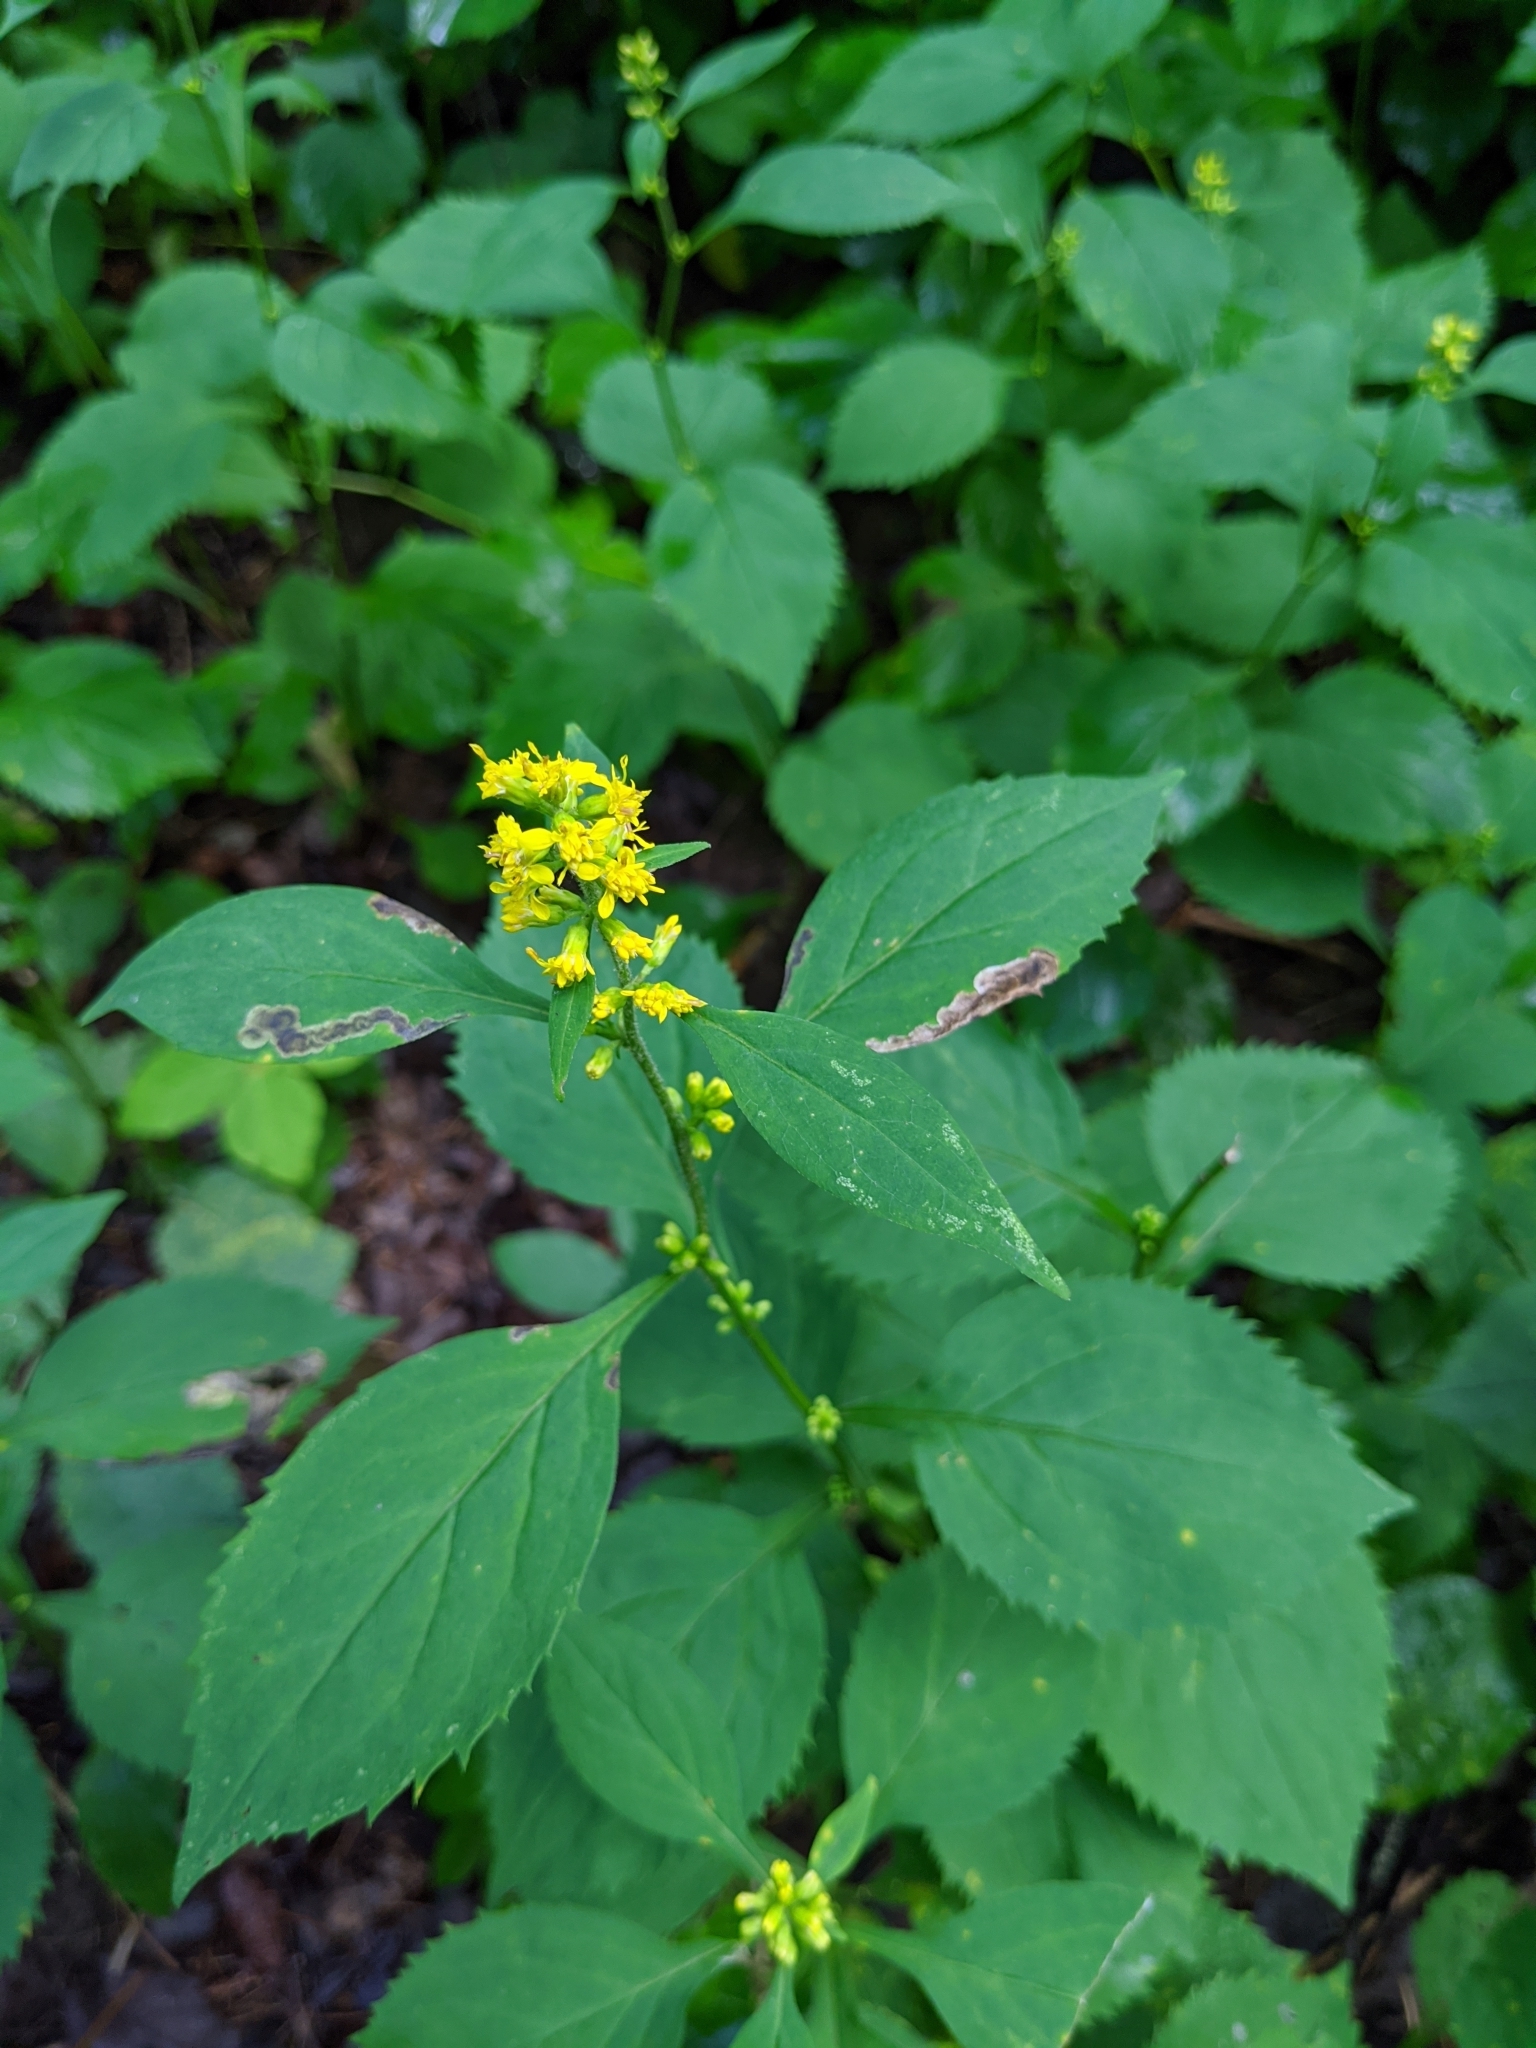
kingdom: Plantae
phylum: Tracheophyta
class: Magnoliopsida
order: Asterales
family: Asteraceae
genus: Solidago
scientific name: Solidago flexicaulis
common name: Zig-zag goldenrod
